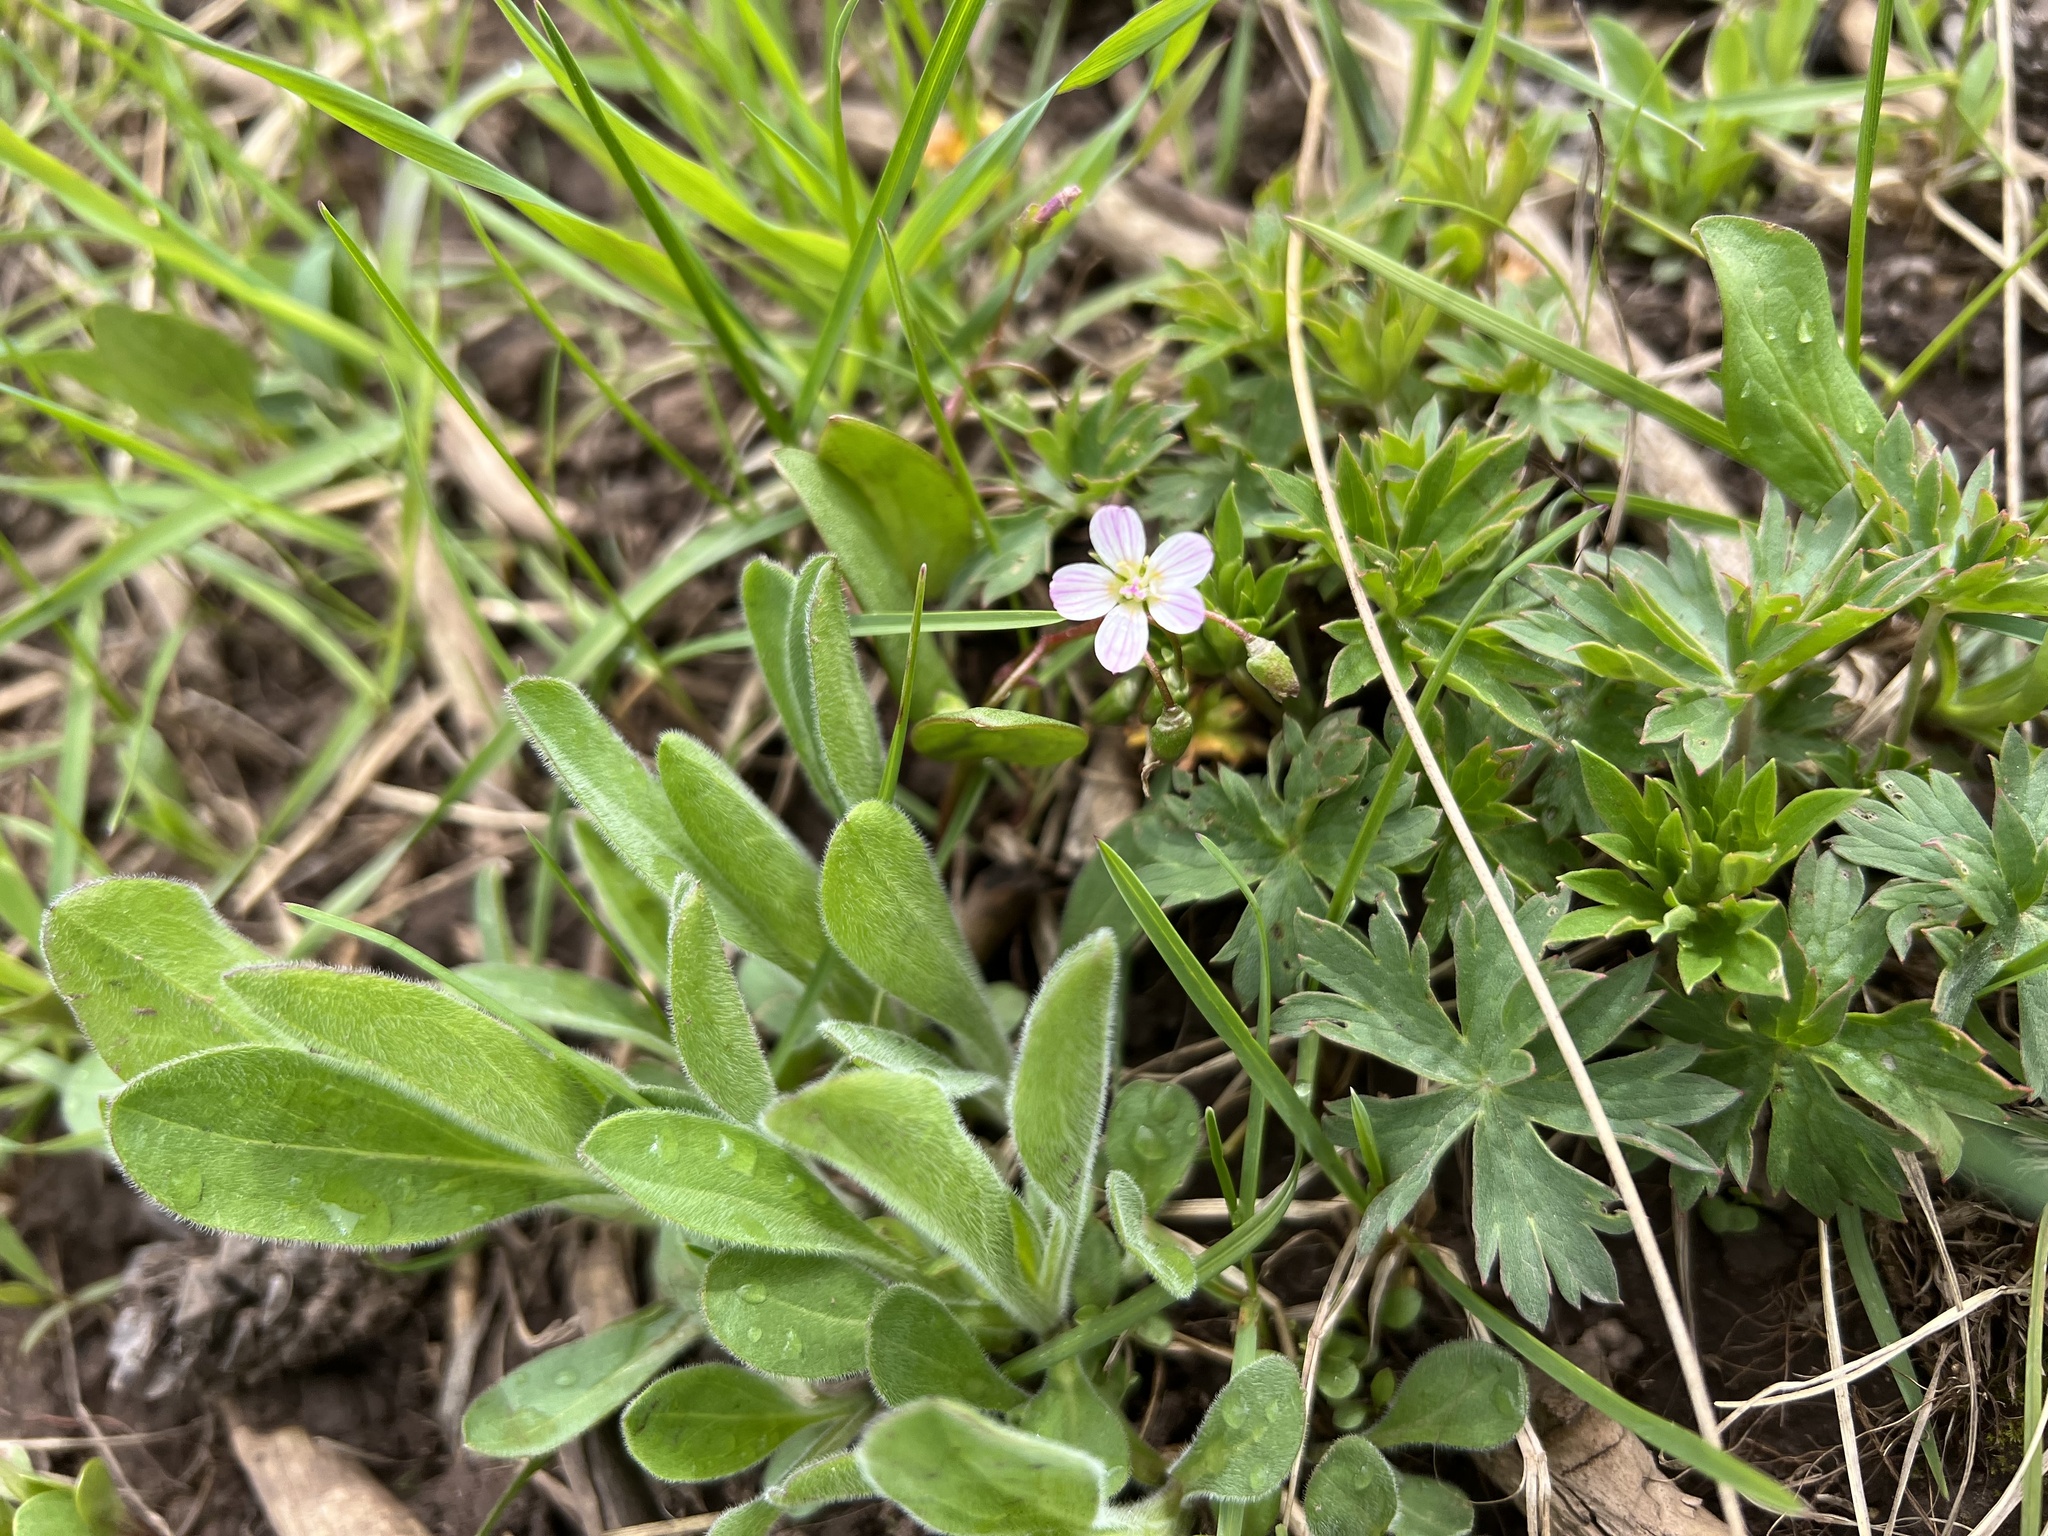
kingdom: Plantae
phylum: Tracheophyta
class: Magnoliopsida
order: Caryophyllales
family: Montiaceae
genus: Claytonia
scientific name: Claytonia lanceolata
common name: Western spring-beauty
